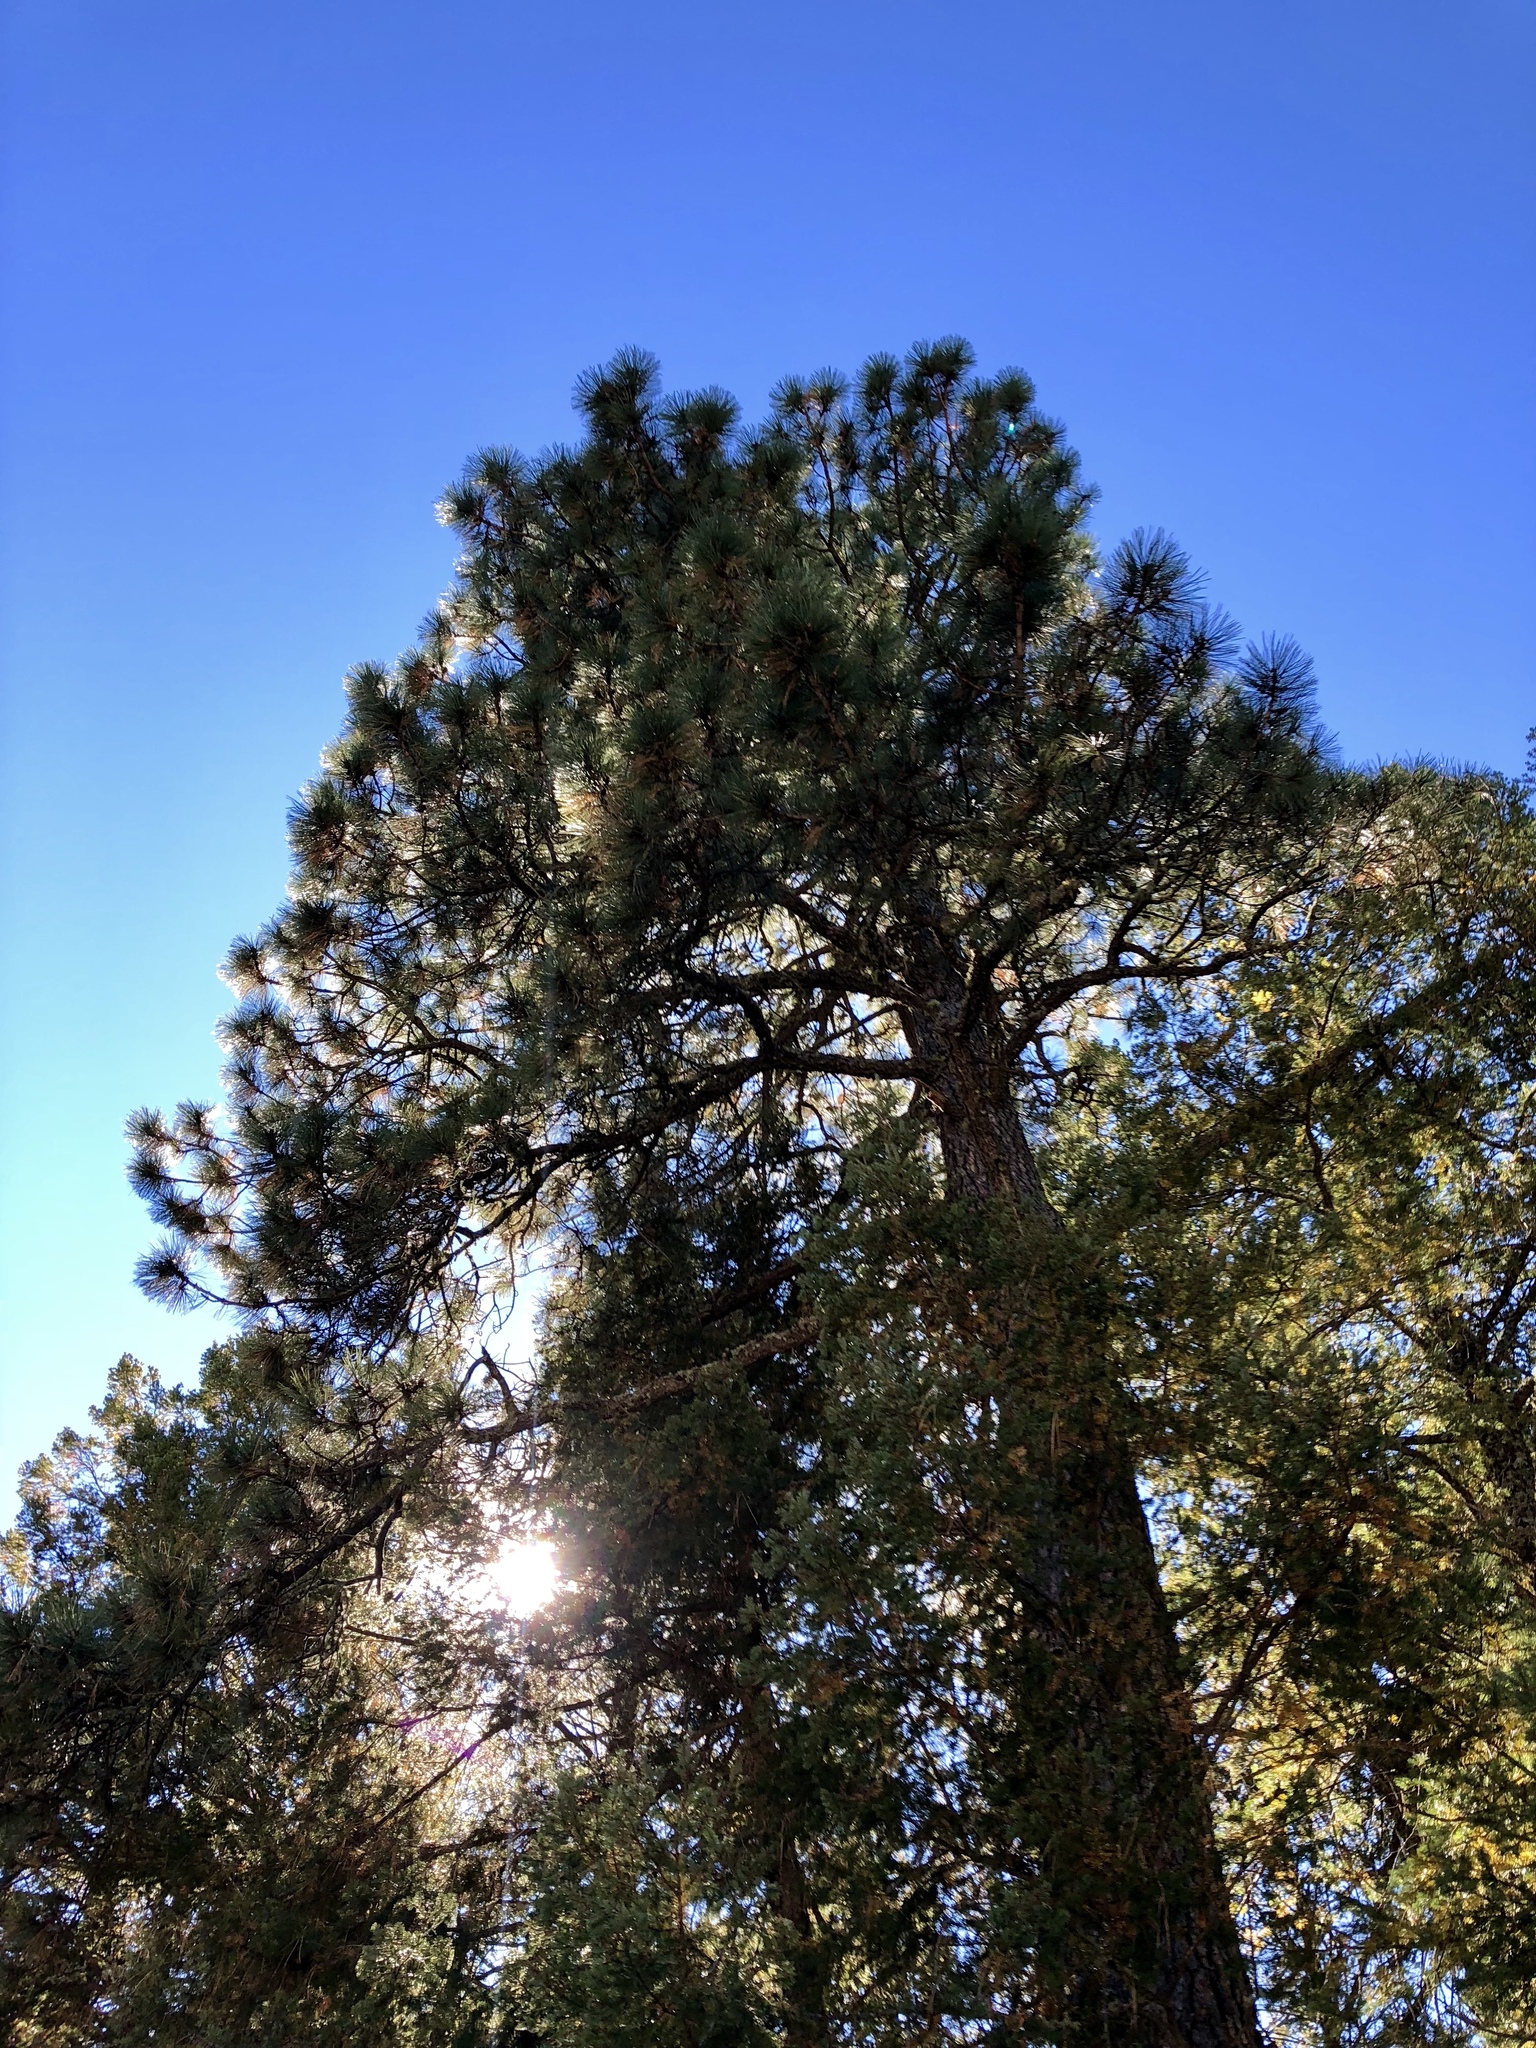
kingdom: Plantae
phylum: Tracheophyta
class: Pinopsida
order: Pinales
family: Pinaceae
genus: Pinus
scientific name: Pinus ponderosa
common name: Western yellow-pine
